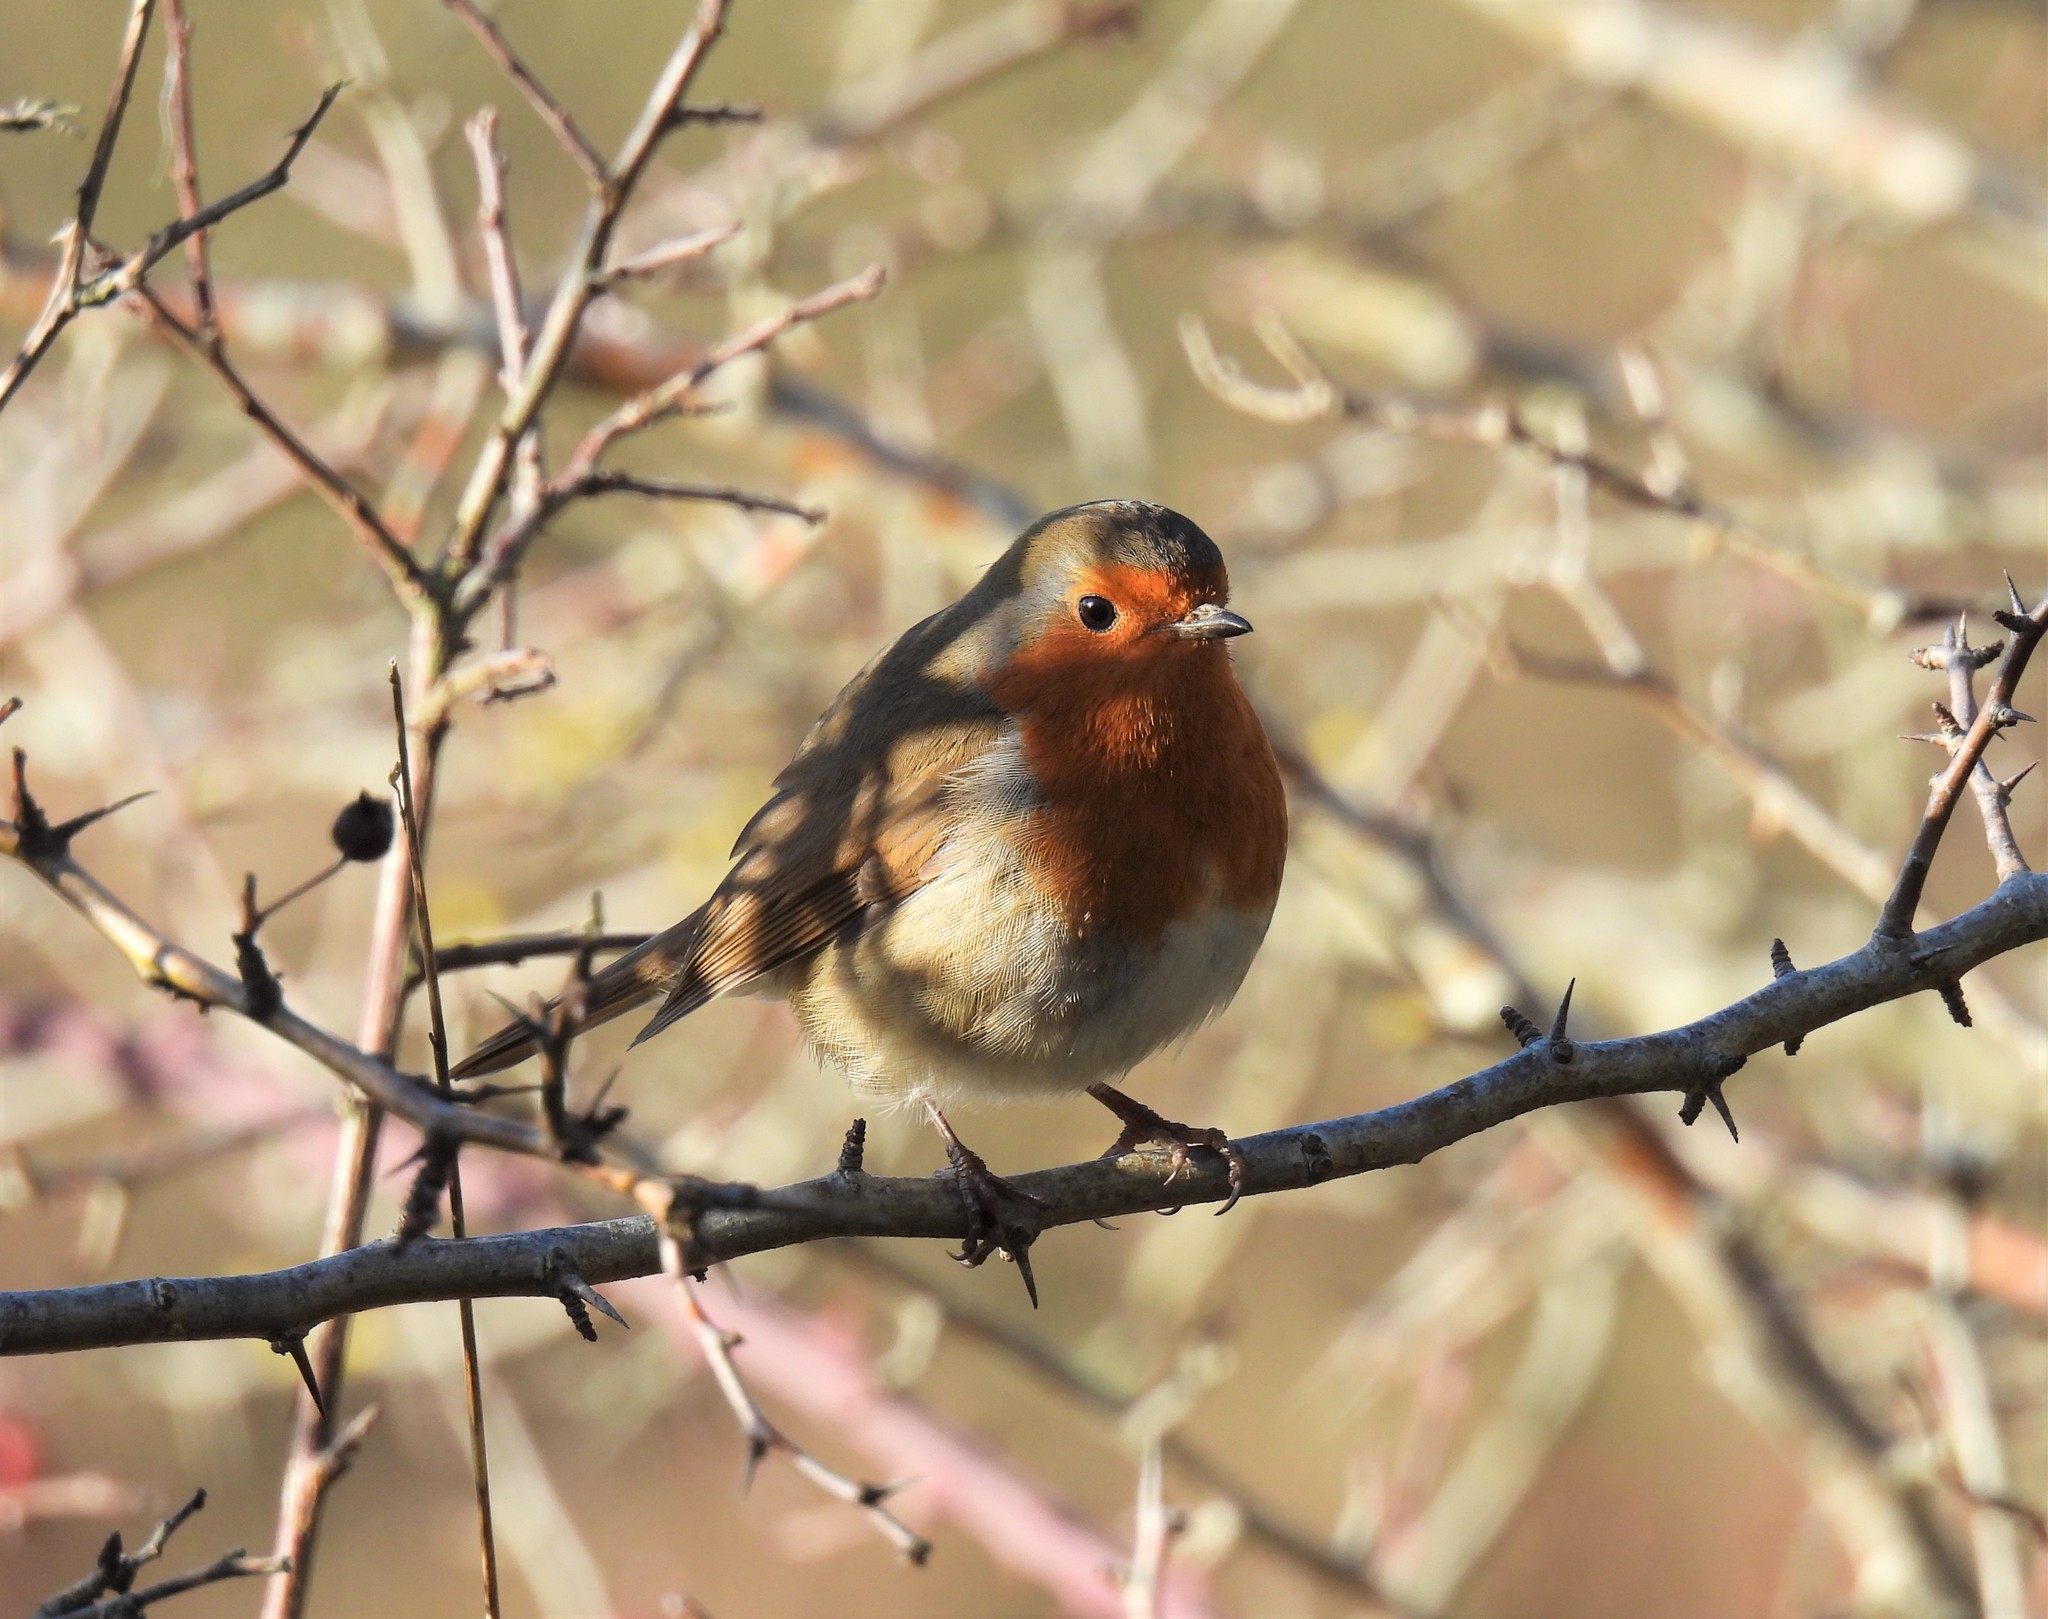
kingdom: Animalia
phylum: Chordata
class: Aves
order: Passeriformes
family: Muscicapidae
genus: Erithacus
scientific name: Erithacus rubecula
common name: European robin
